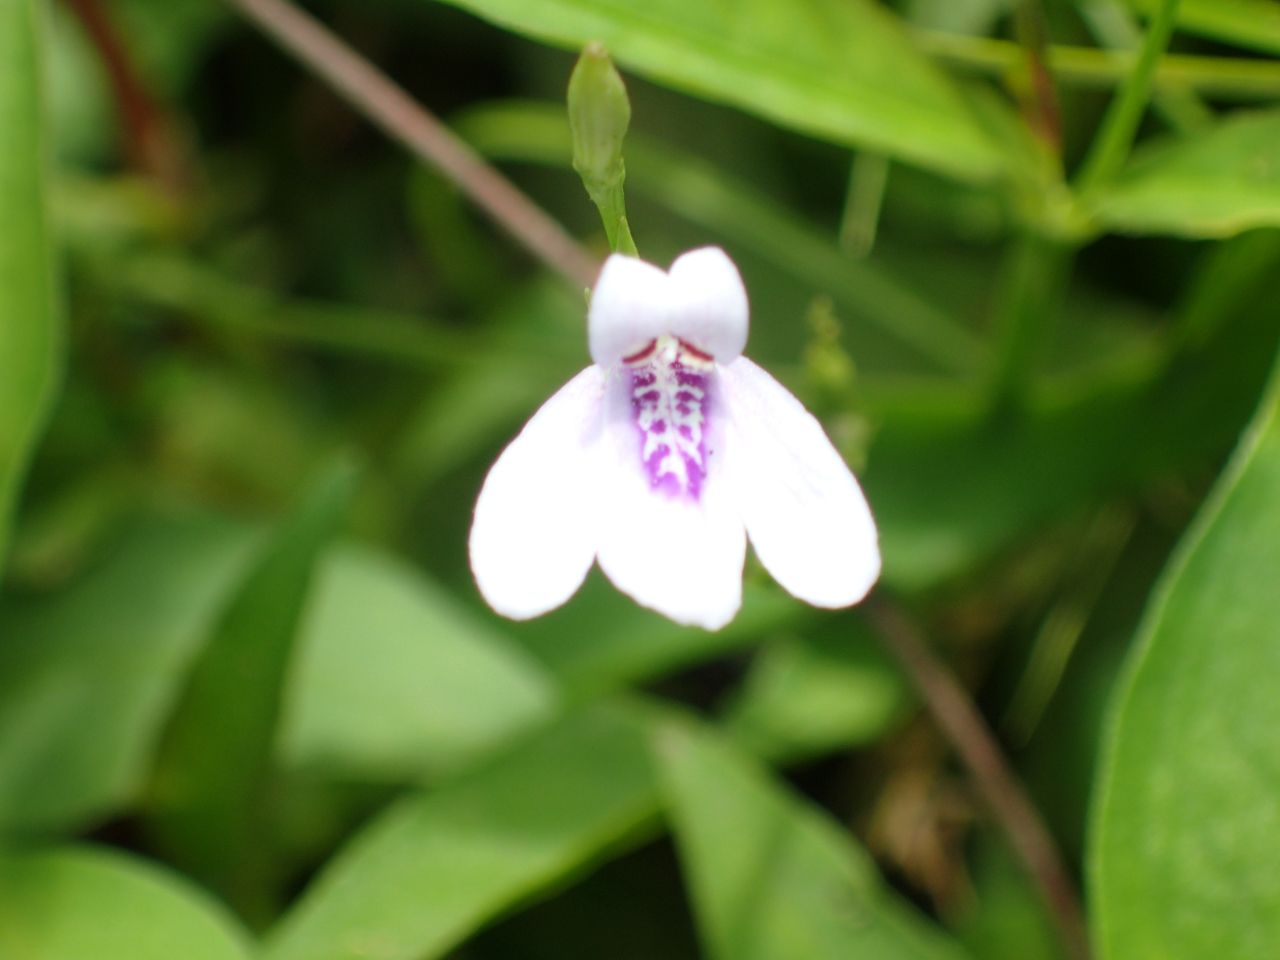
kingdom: Plantae
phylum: Tracheophyta
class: Magnoliopsida
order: Lamiales
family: Acanthaceae
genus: Justicia
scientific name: Justicia lanceolata
